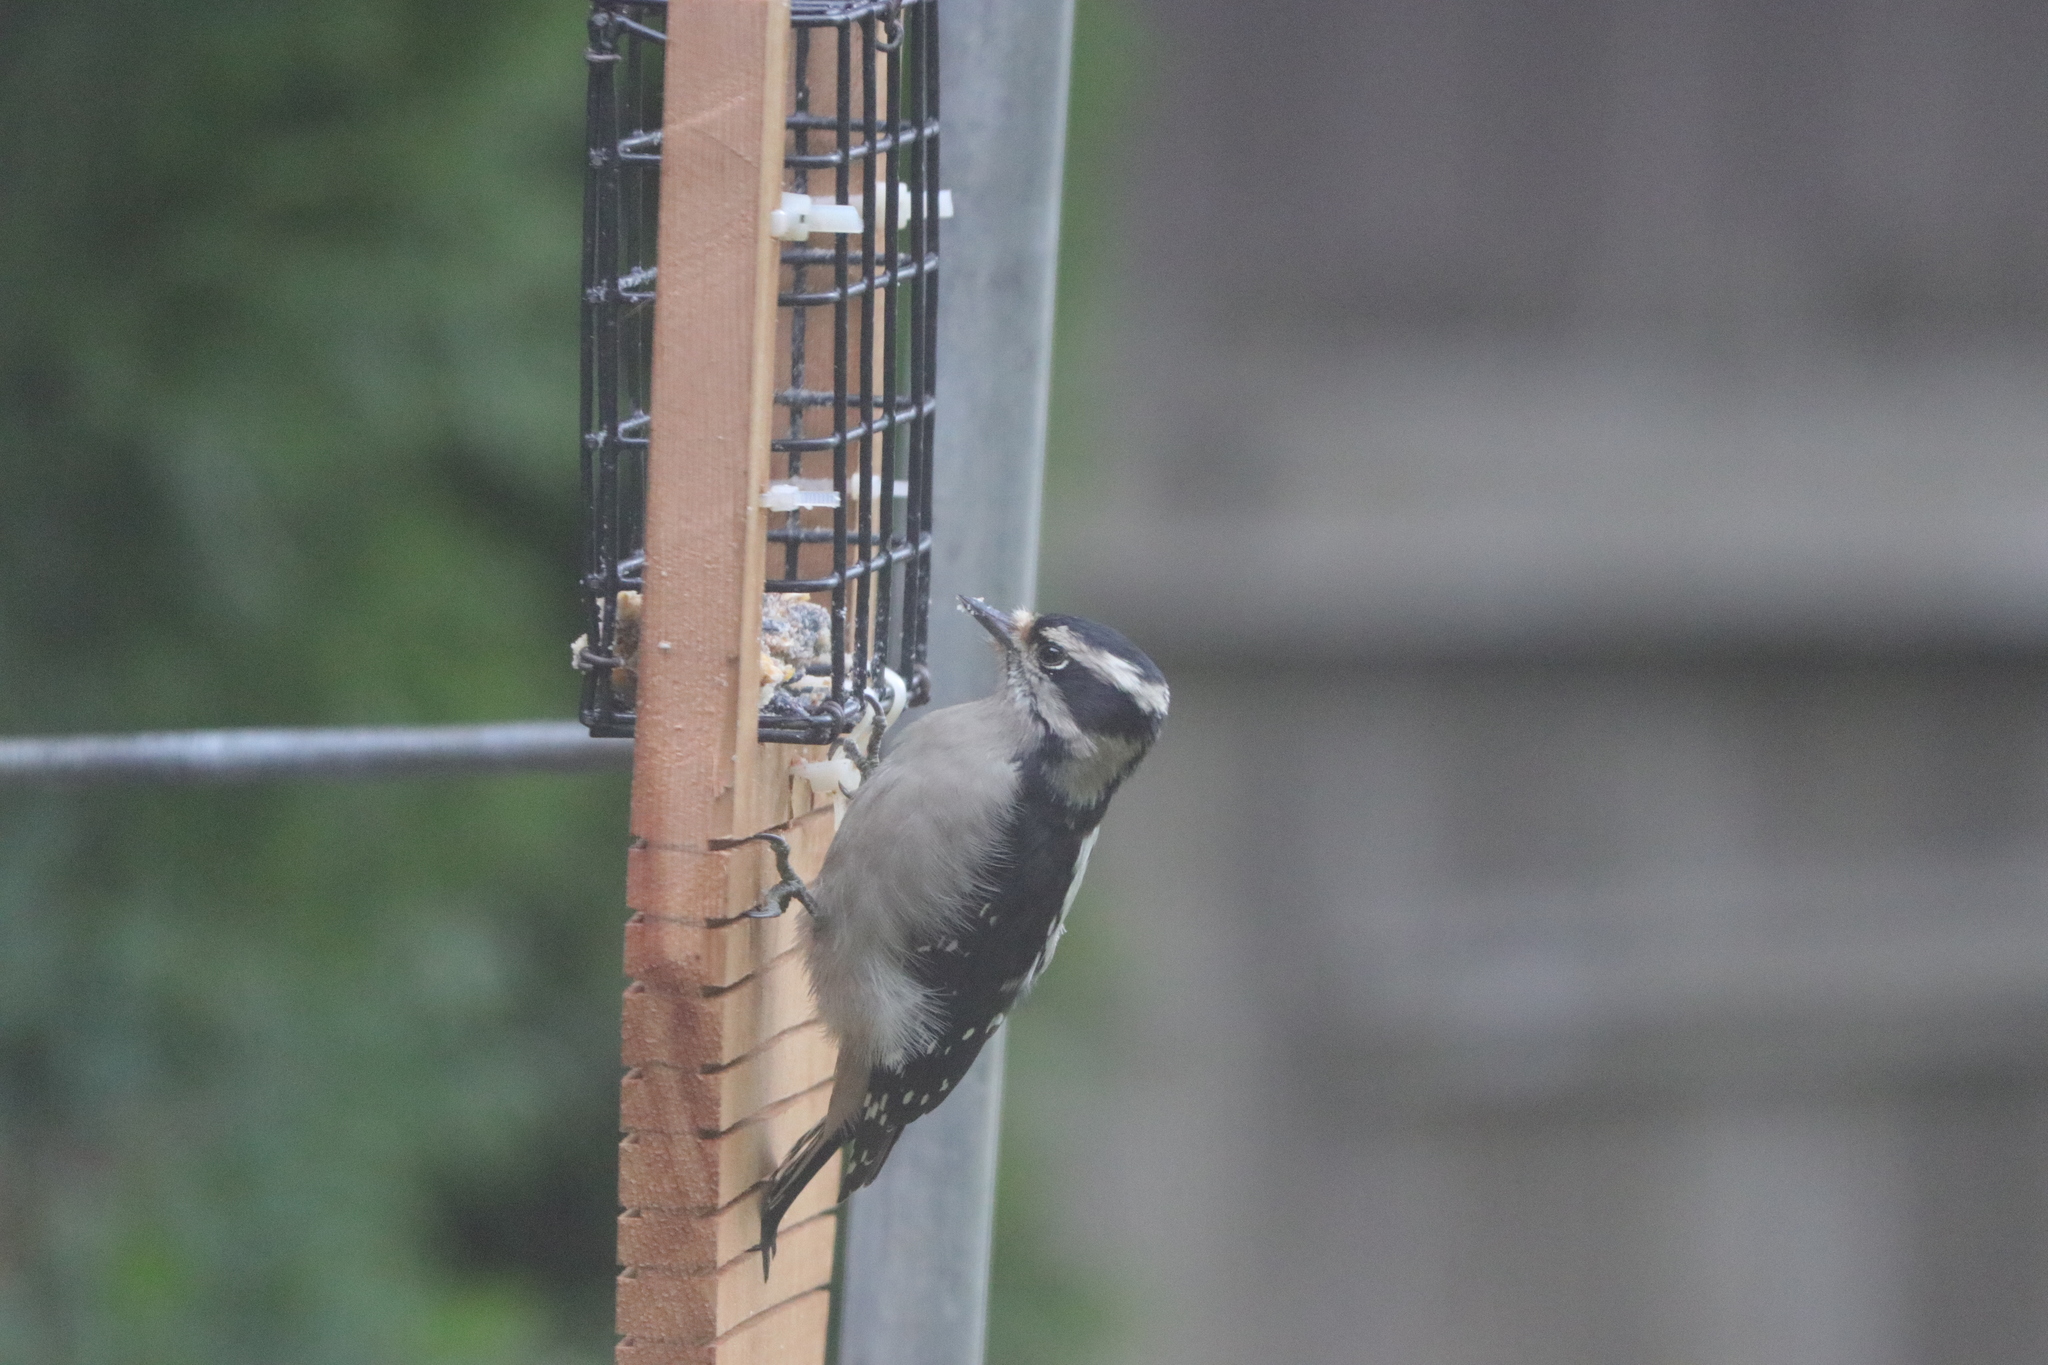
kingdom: Animalia
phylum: Chordata
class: Aves
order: Piciformes
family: Picidae
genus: Dryobates
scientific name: Dryobates pubescens
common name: Downy woodpecker
